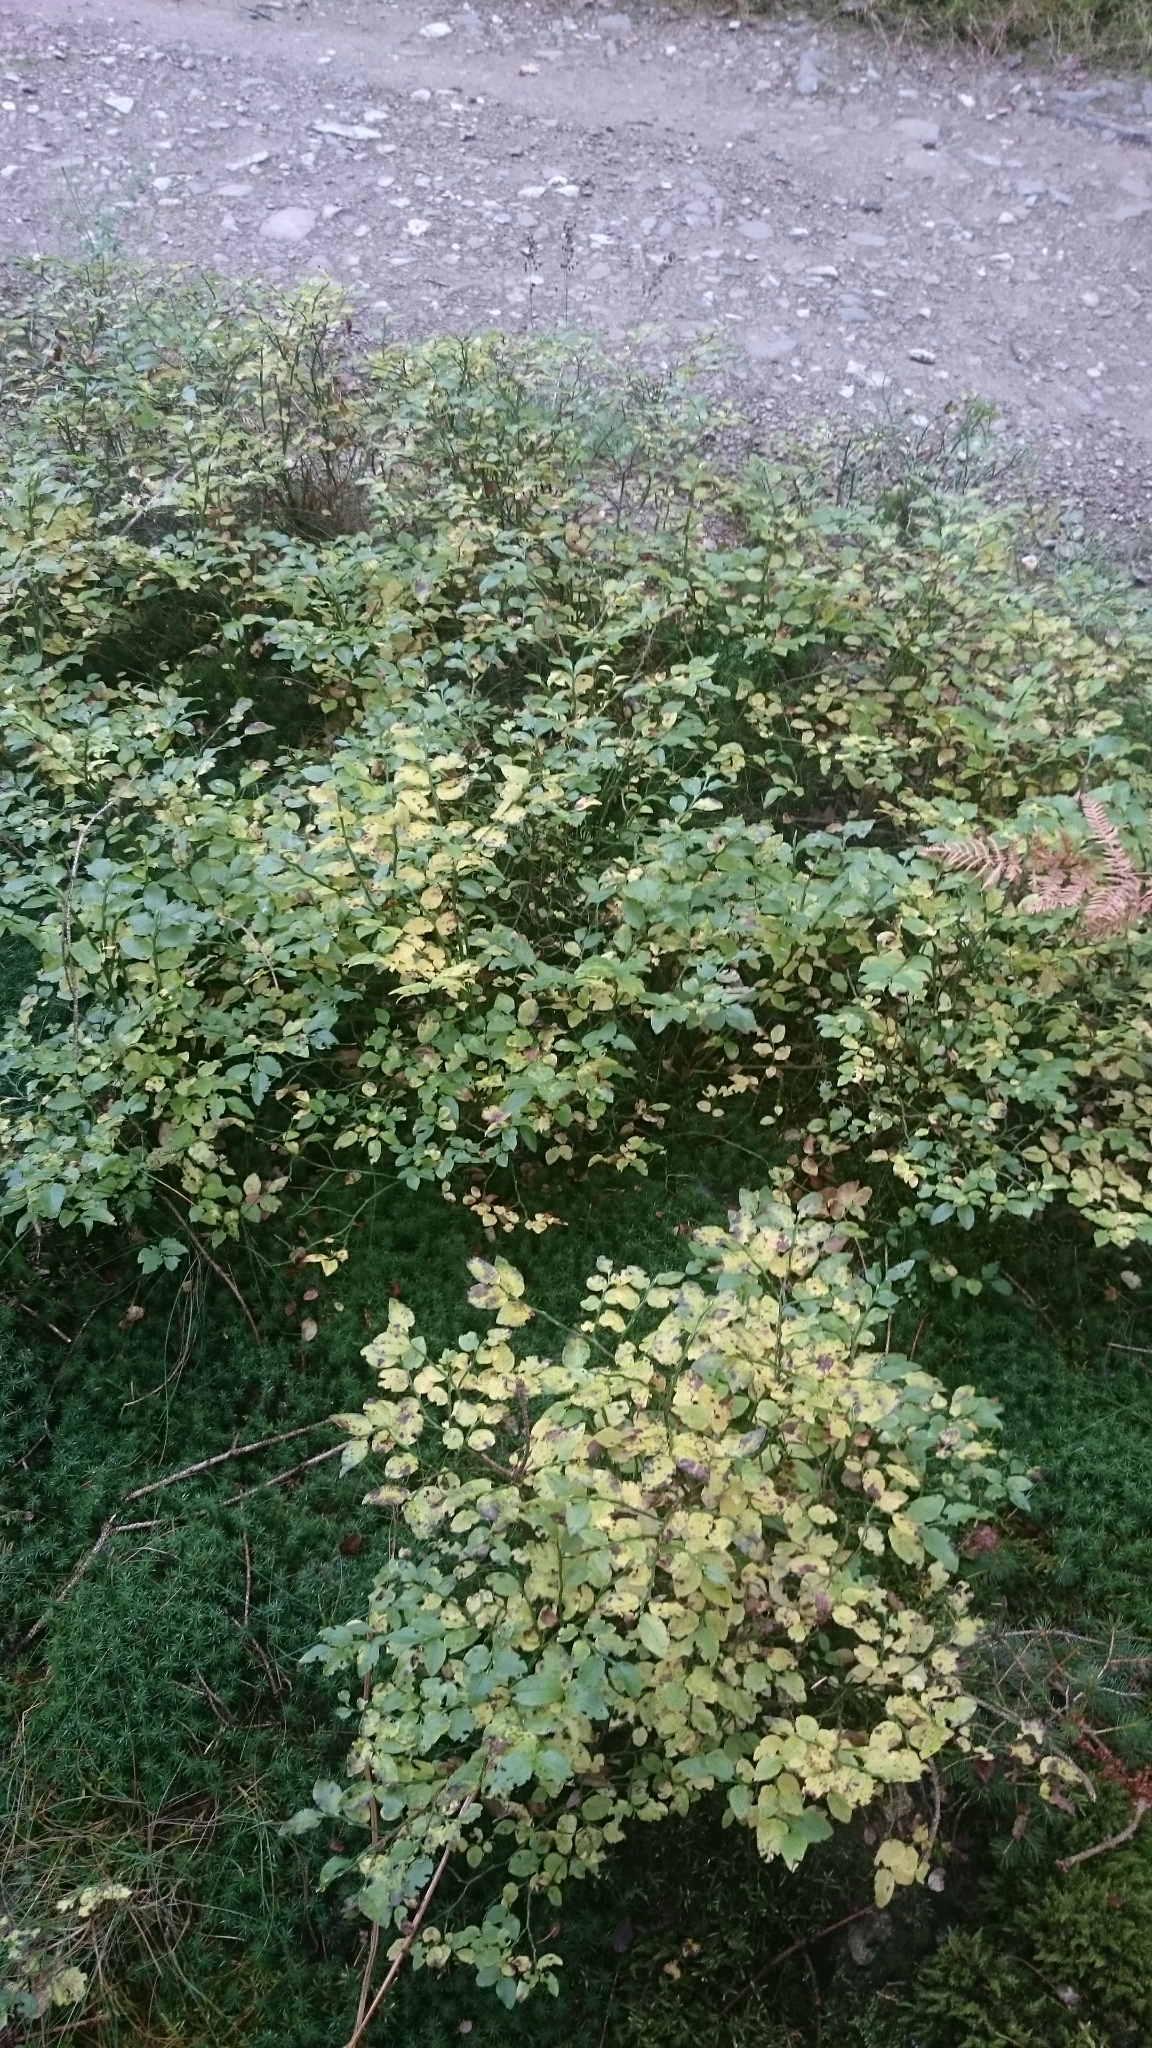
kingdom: Plantae
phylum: Tracheophyta
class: Magnoliopsida
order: Ericales
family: Ericaceae
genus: Vaccinium
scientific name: Vaccinium myrtillus
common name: Bilberry
